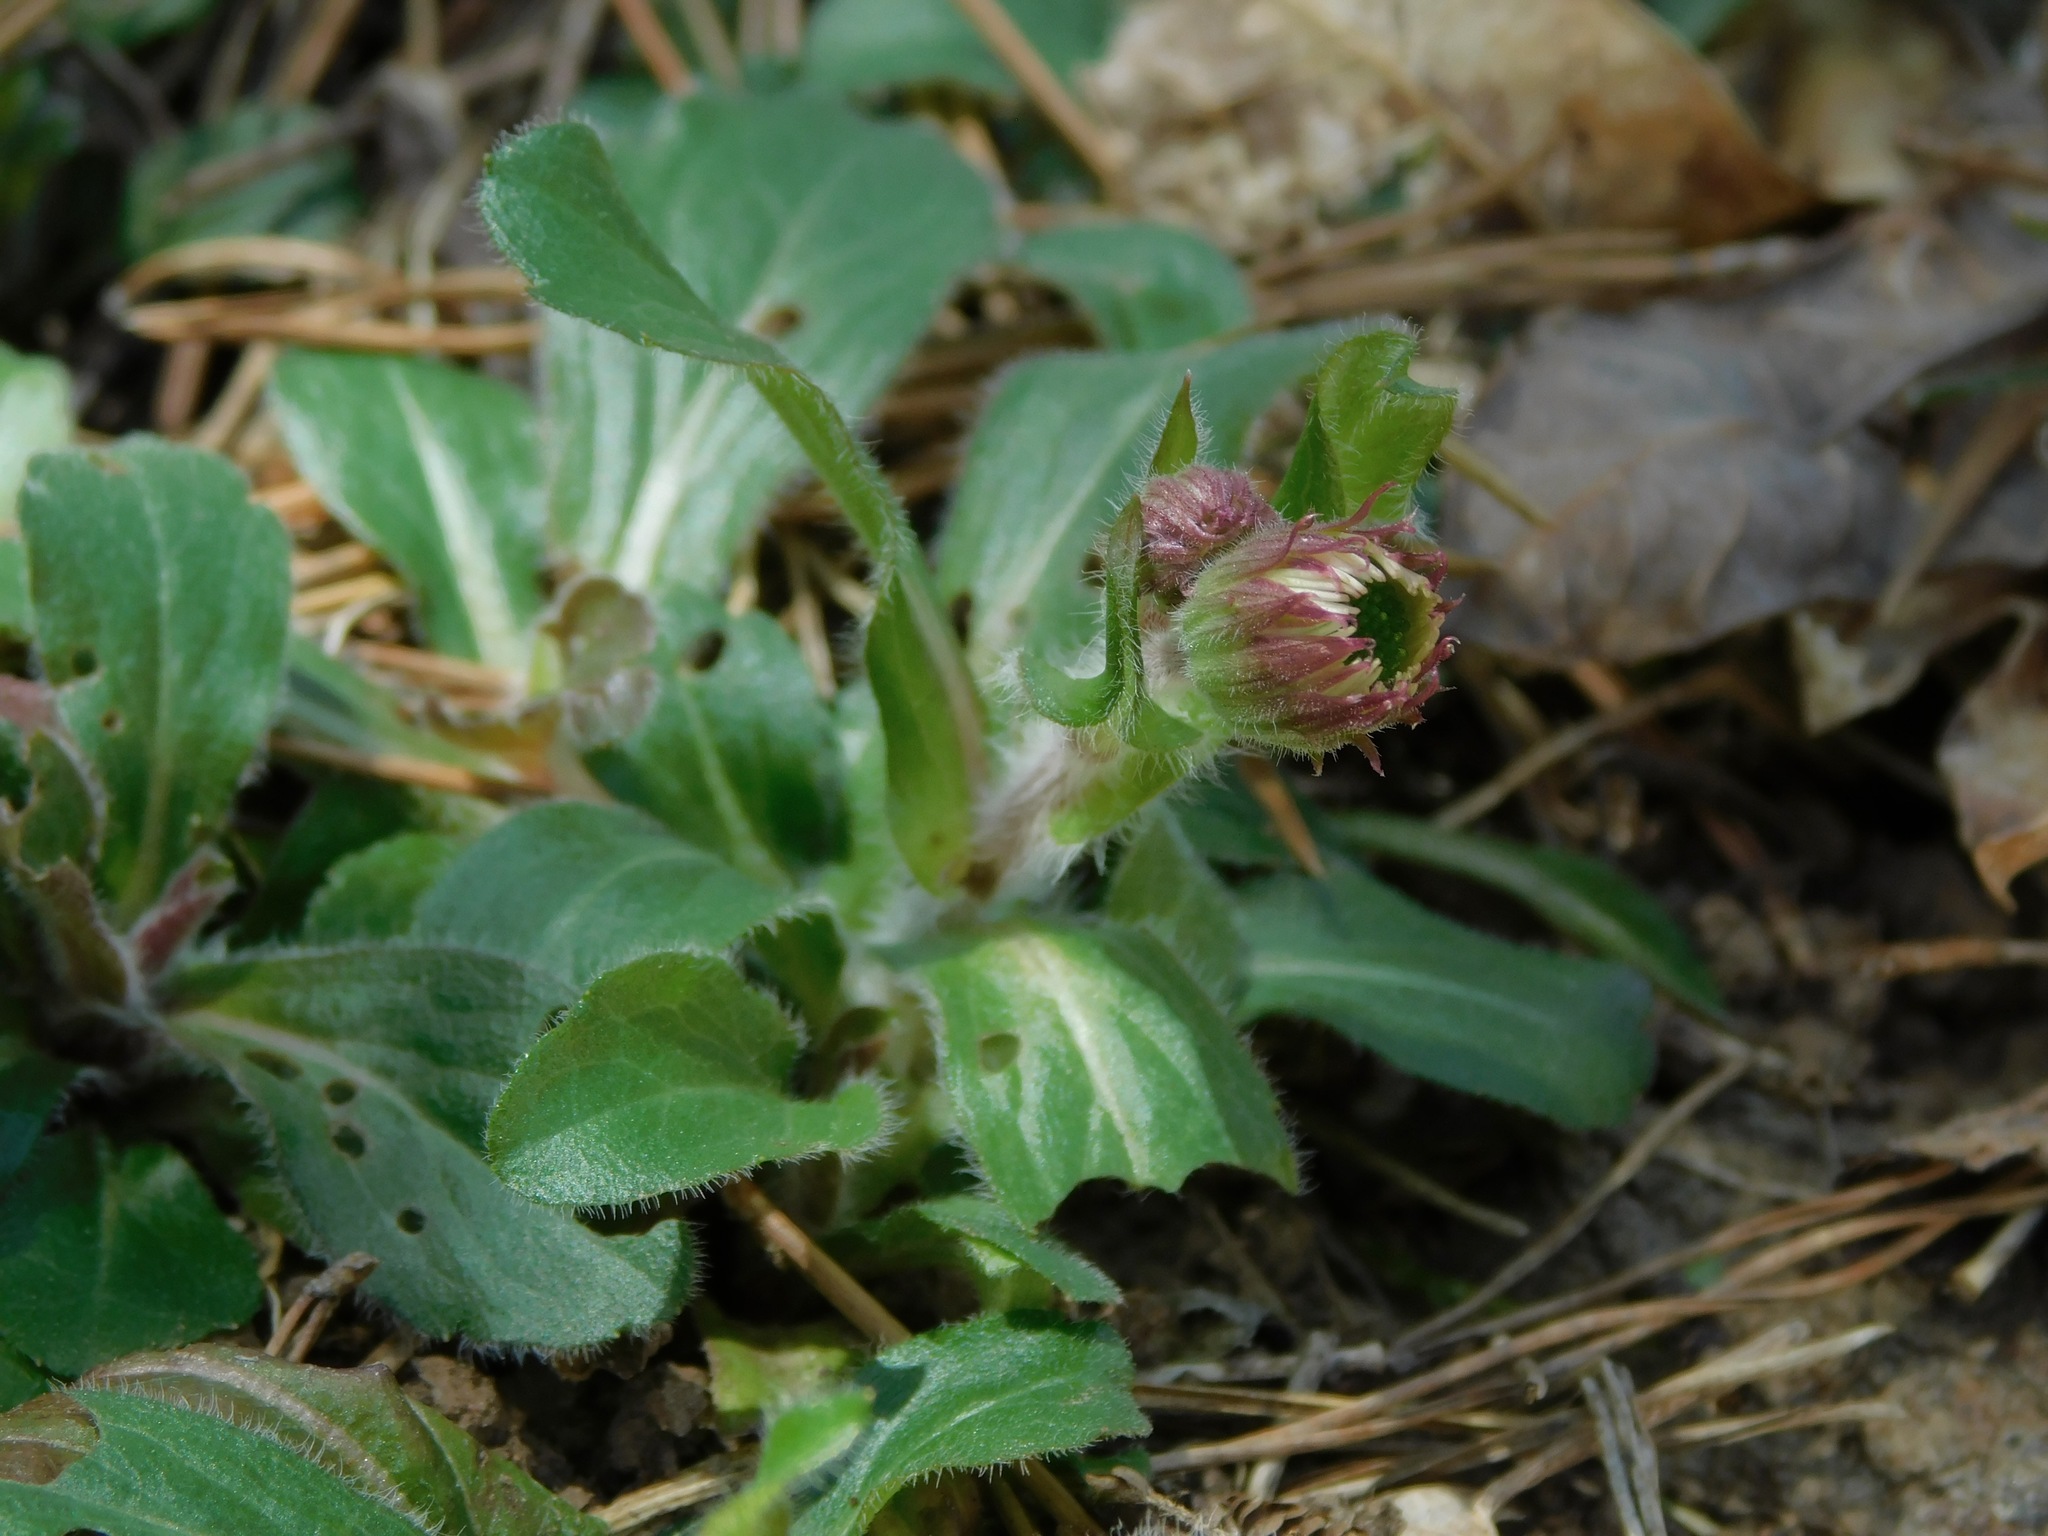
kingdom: Plantae
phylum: Tracheophyta
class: Magnoliopsida
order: Asterales
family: Asteraceae
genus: Erigeron
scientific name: Erigeron pulchellus
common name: Hairy fleabane
